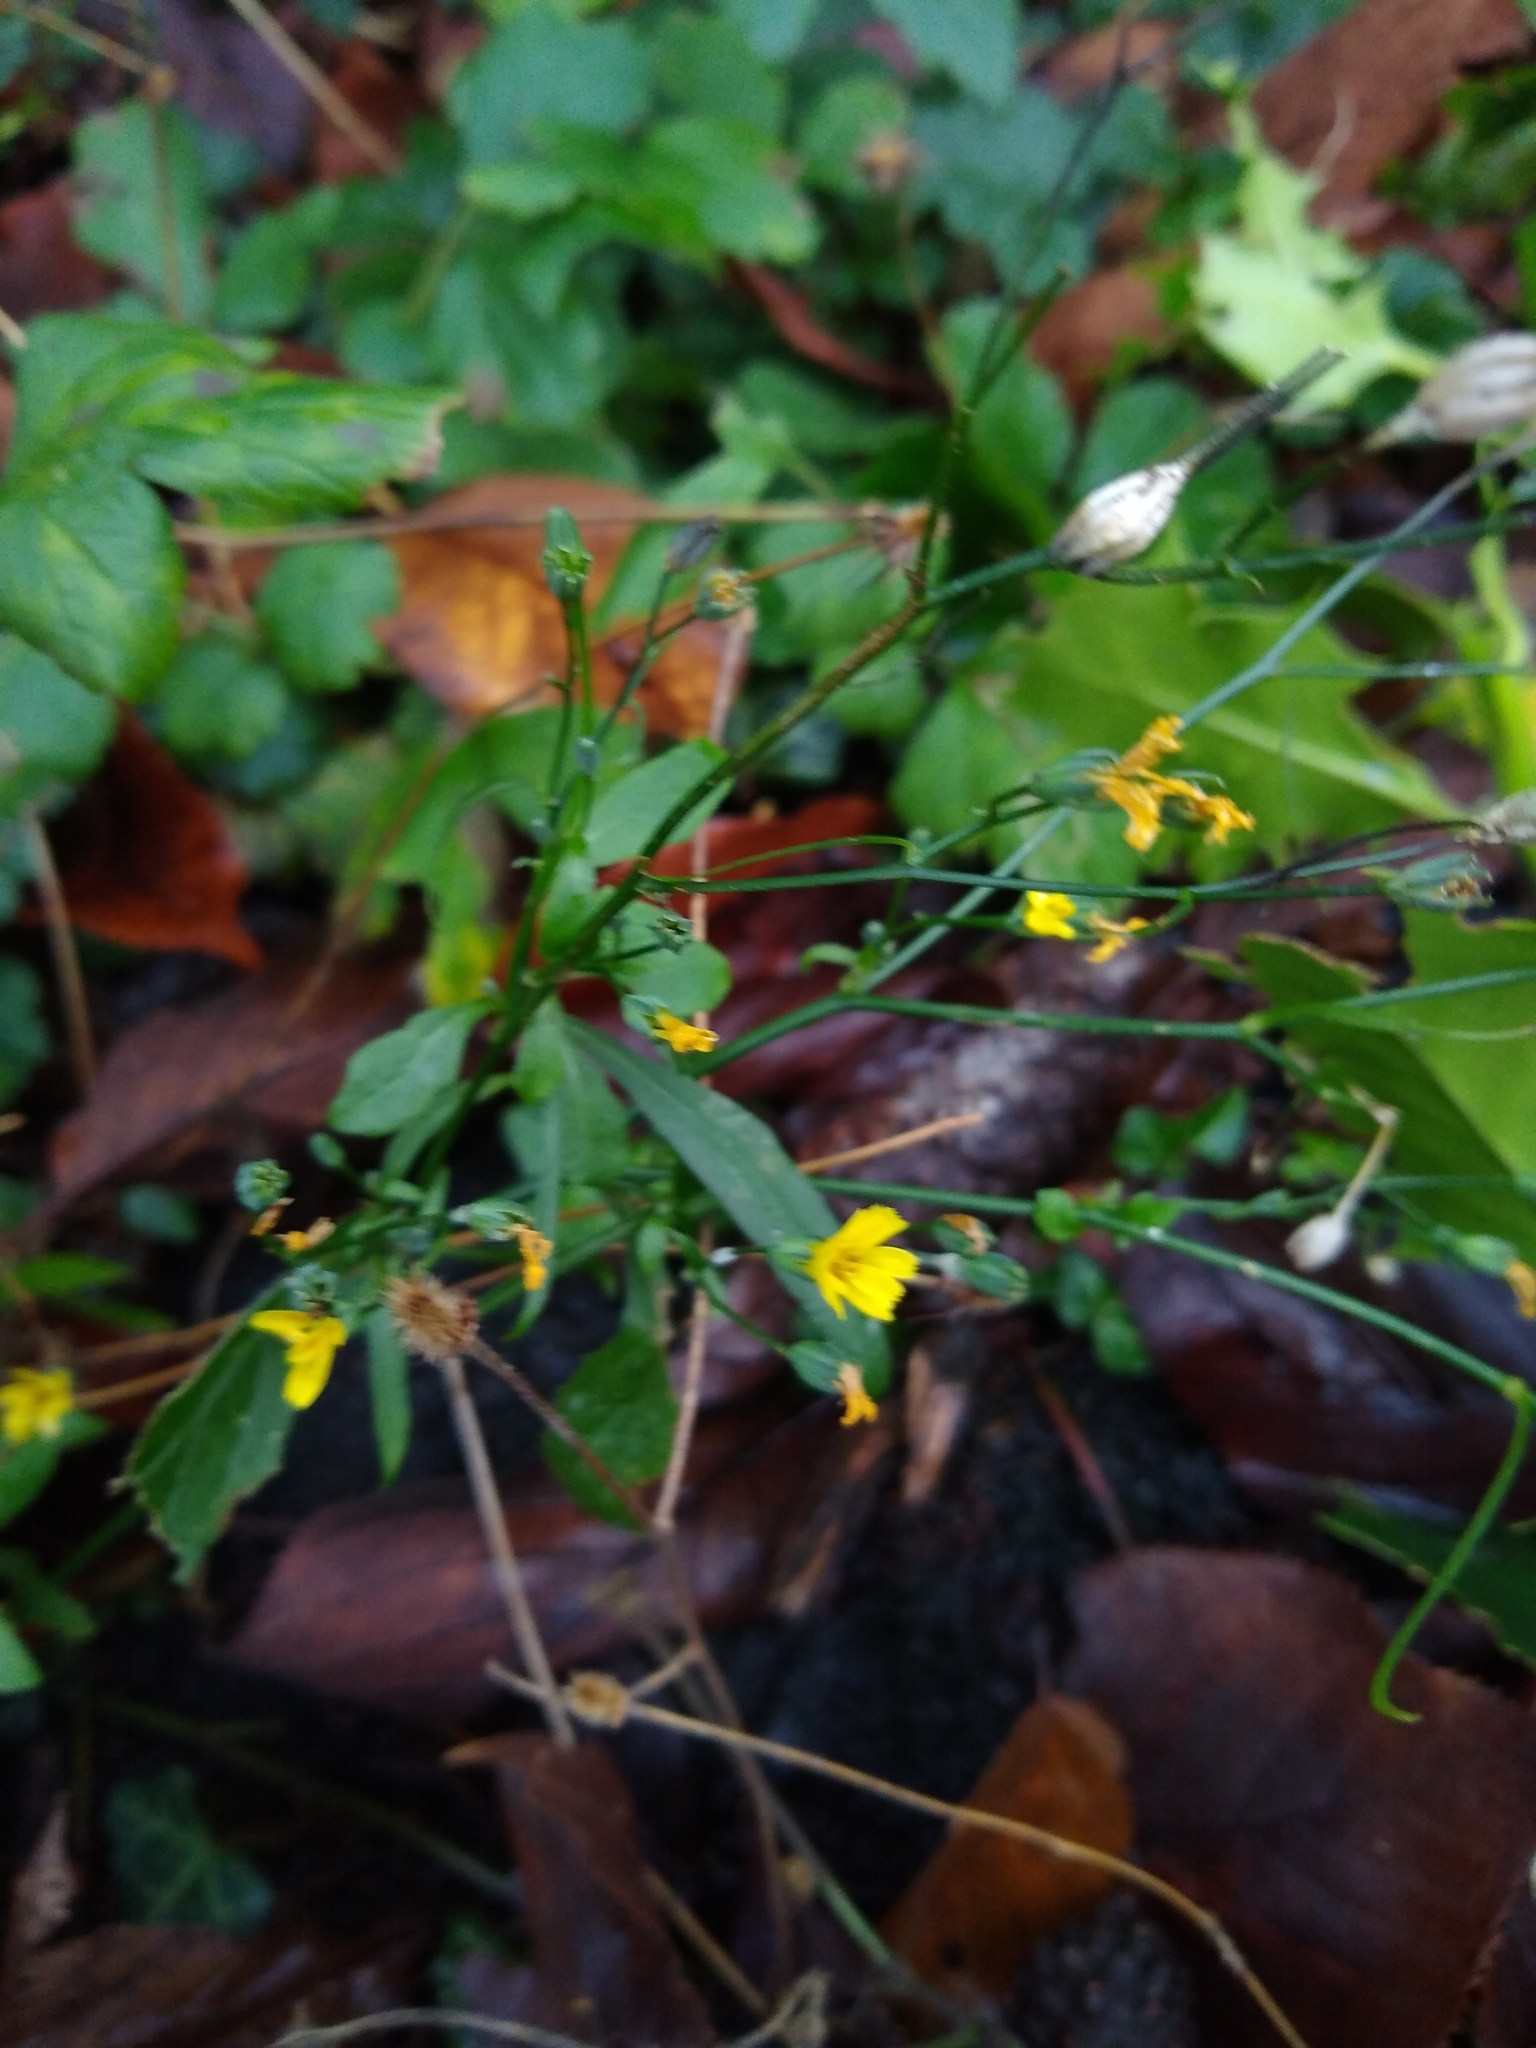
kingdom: Plantae
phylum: Tracheophyta
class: Magnoliopsida
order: Asterales
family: Asteraceae
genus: Lapsana
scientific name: Lapsana communis
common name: Nipplewort
